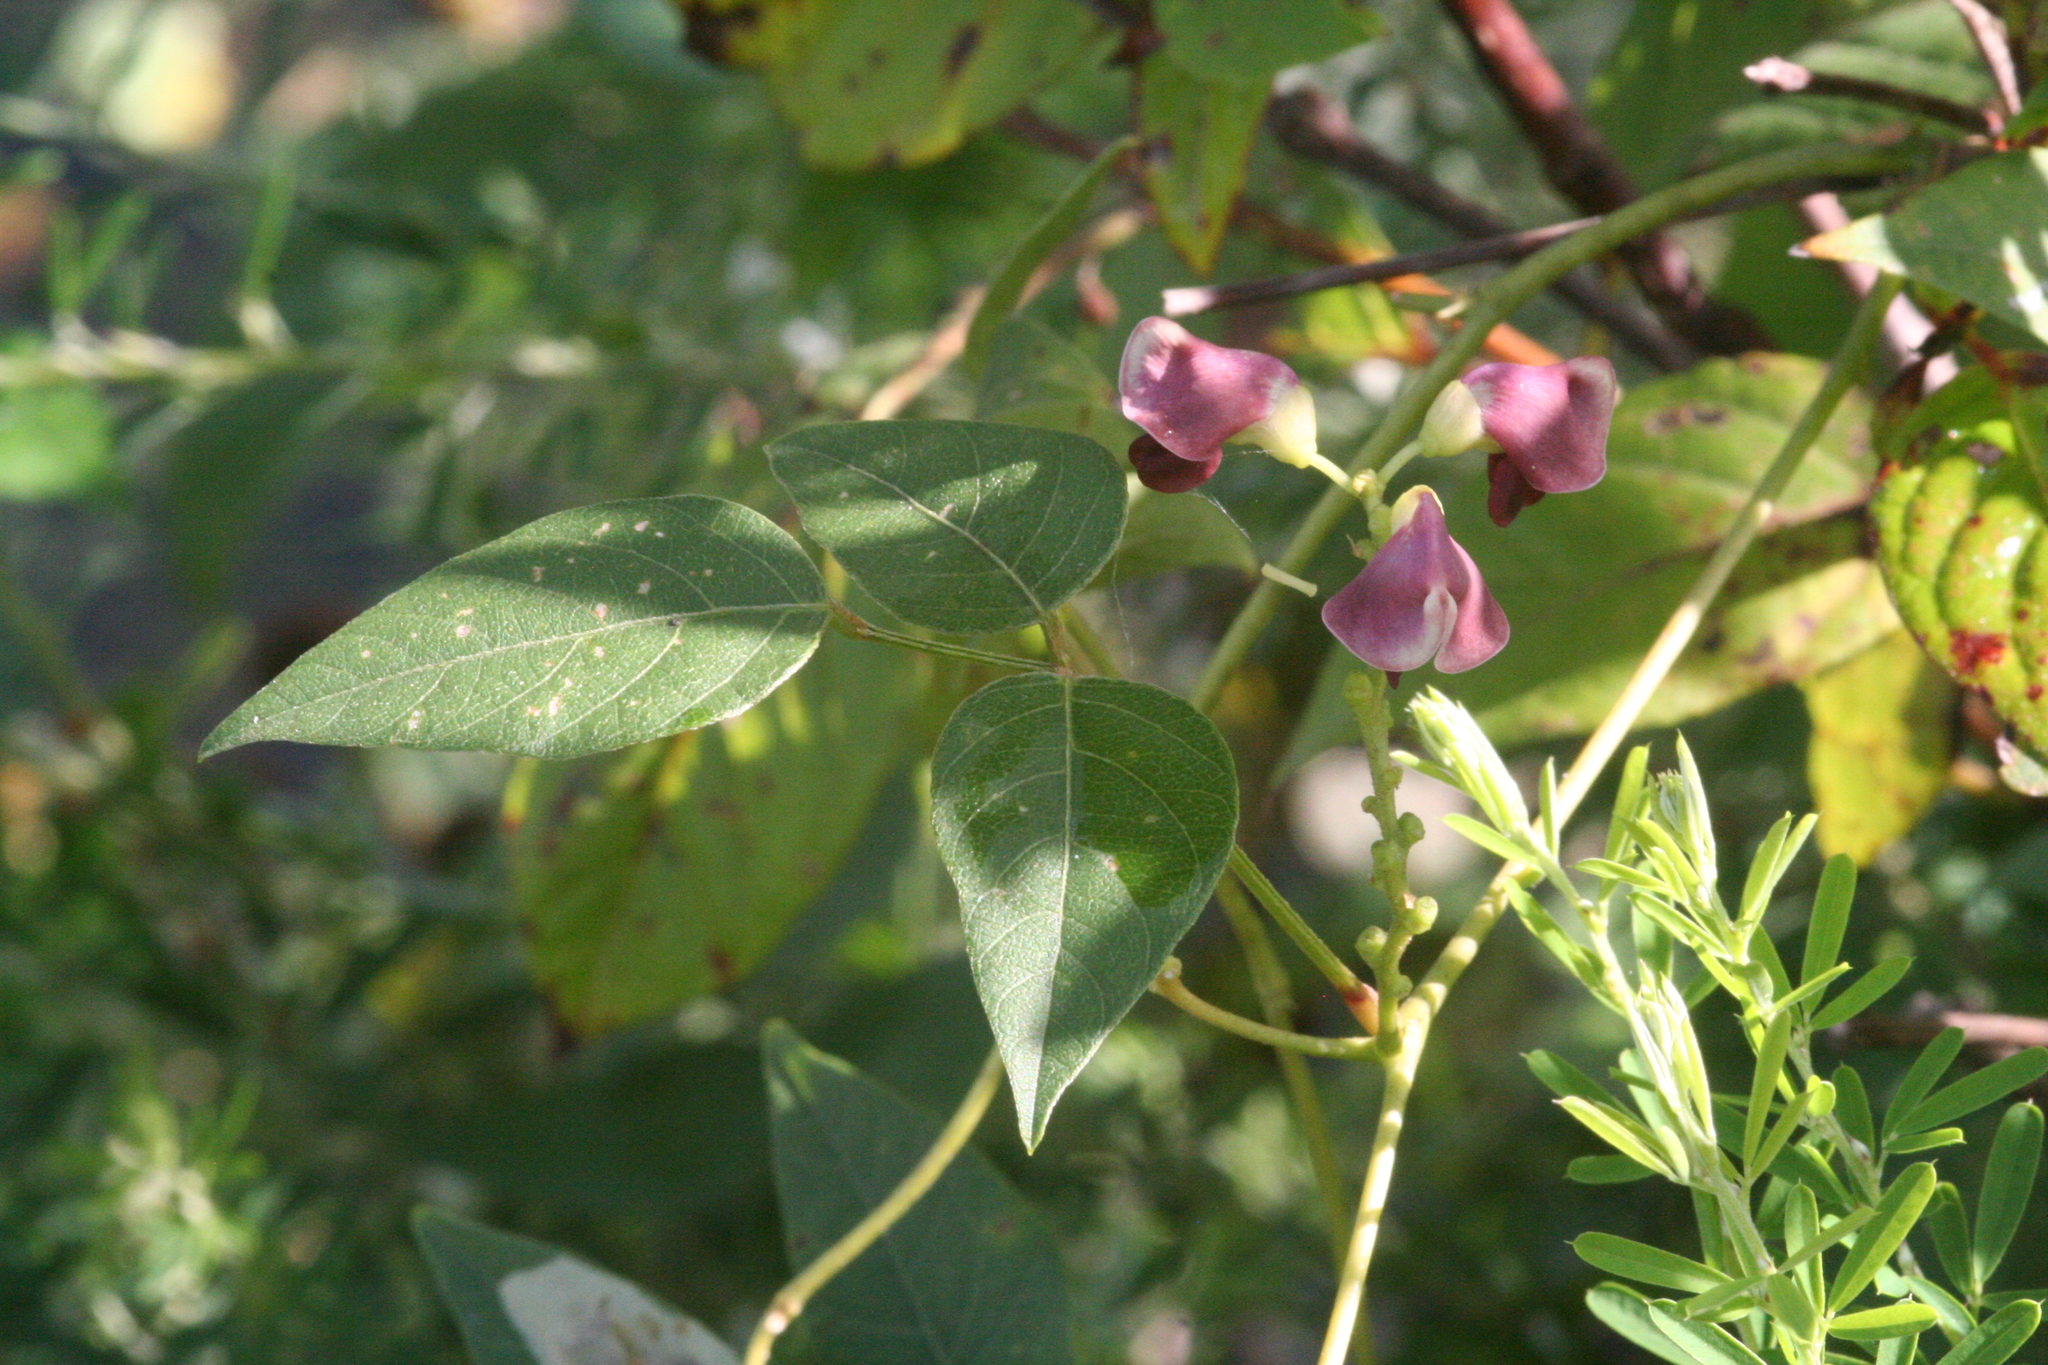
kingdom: Plantae
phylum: Tracheophyta
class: Magnoliopsida
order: Fabales
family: Fabaceae
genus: Apios
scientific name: Apios americana
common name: American potato-bean
